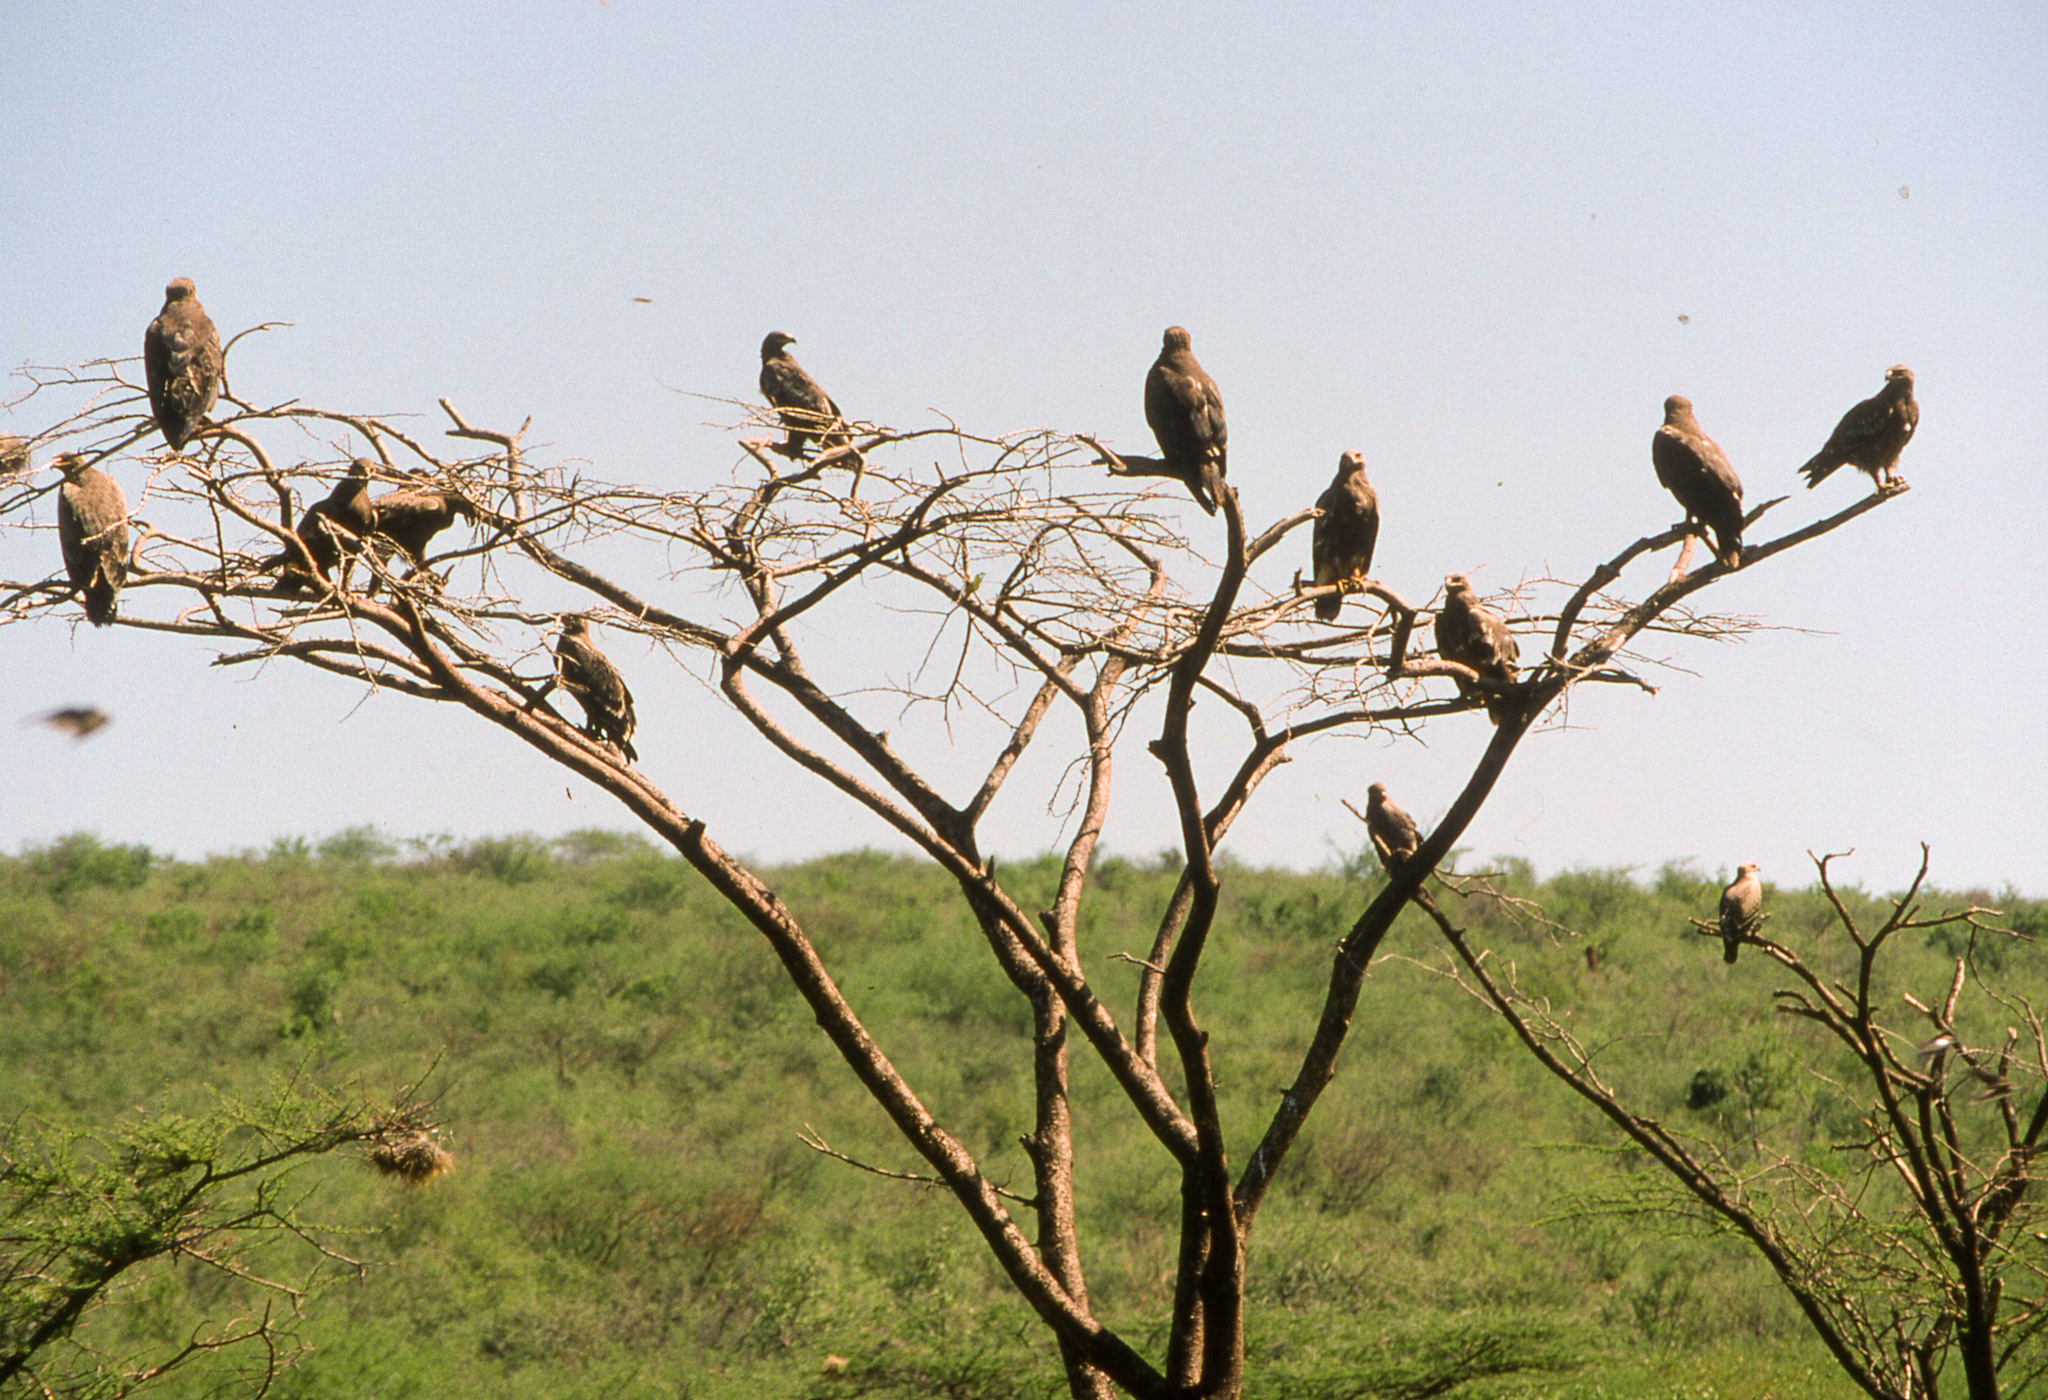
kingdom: Animalia
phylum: Chordata
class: Aves
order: Accipitriformes
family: Accipitridae
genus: Aquila
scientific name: Aquila nipalensis
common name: Steppe eagle
